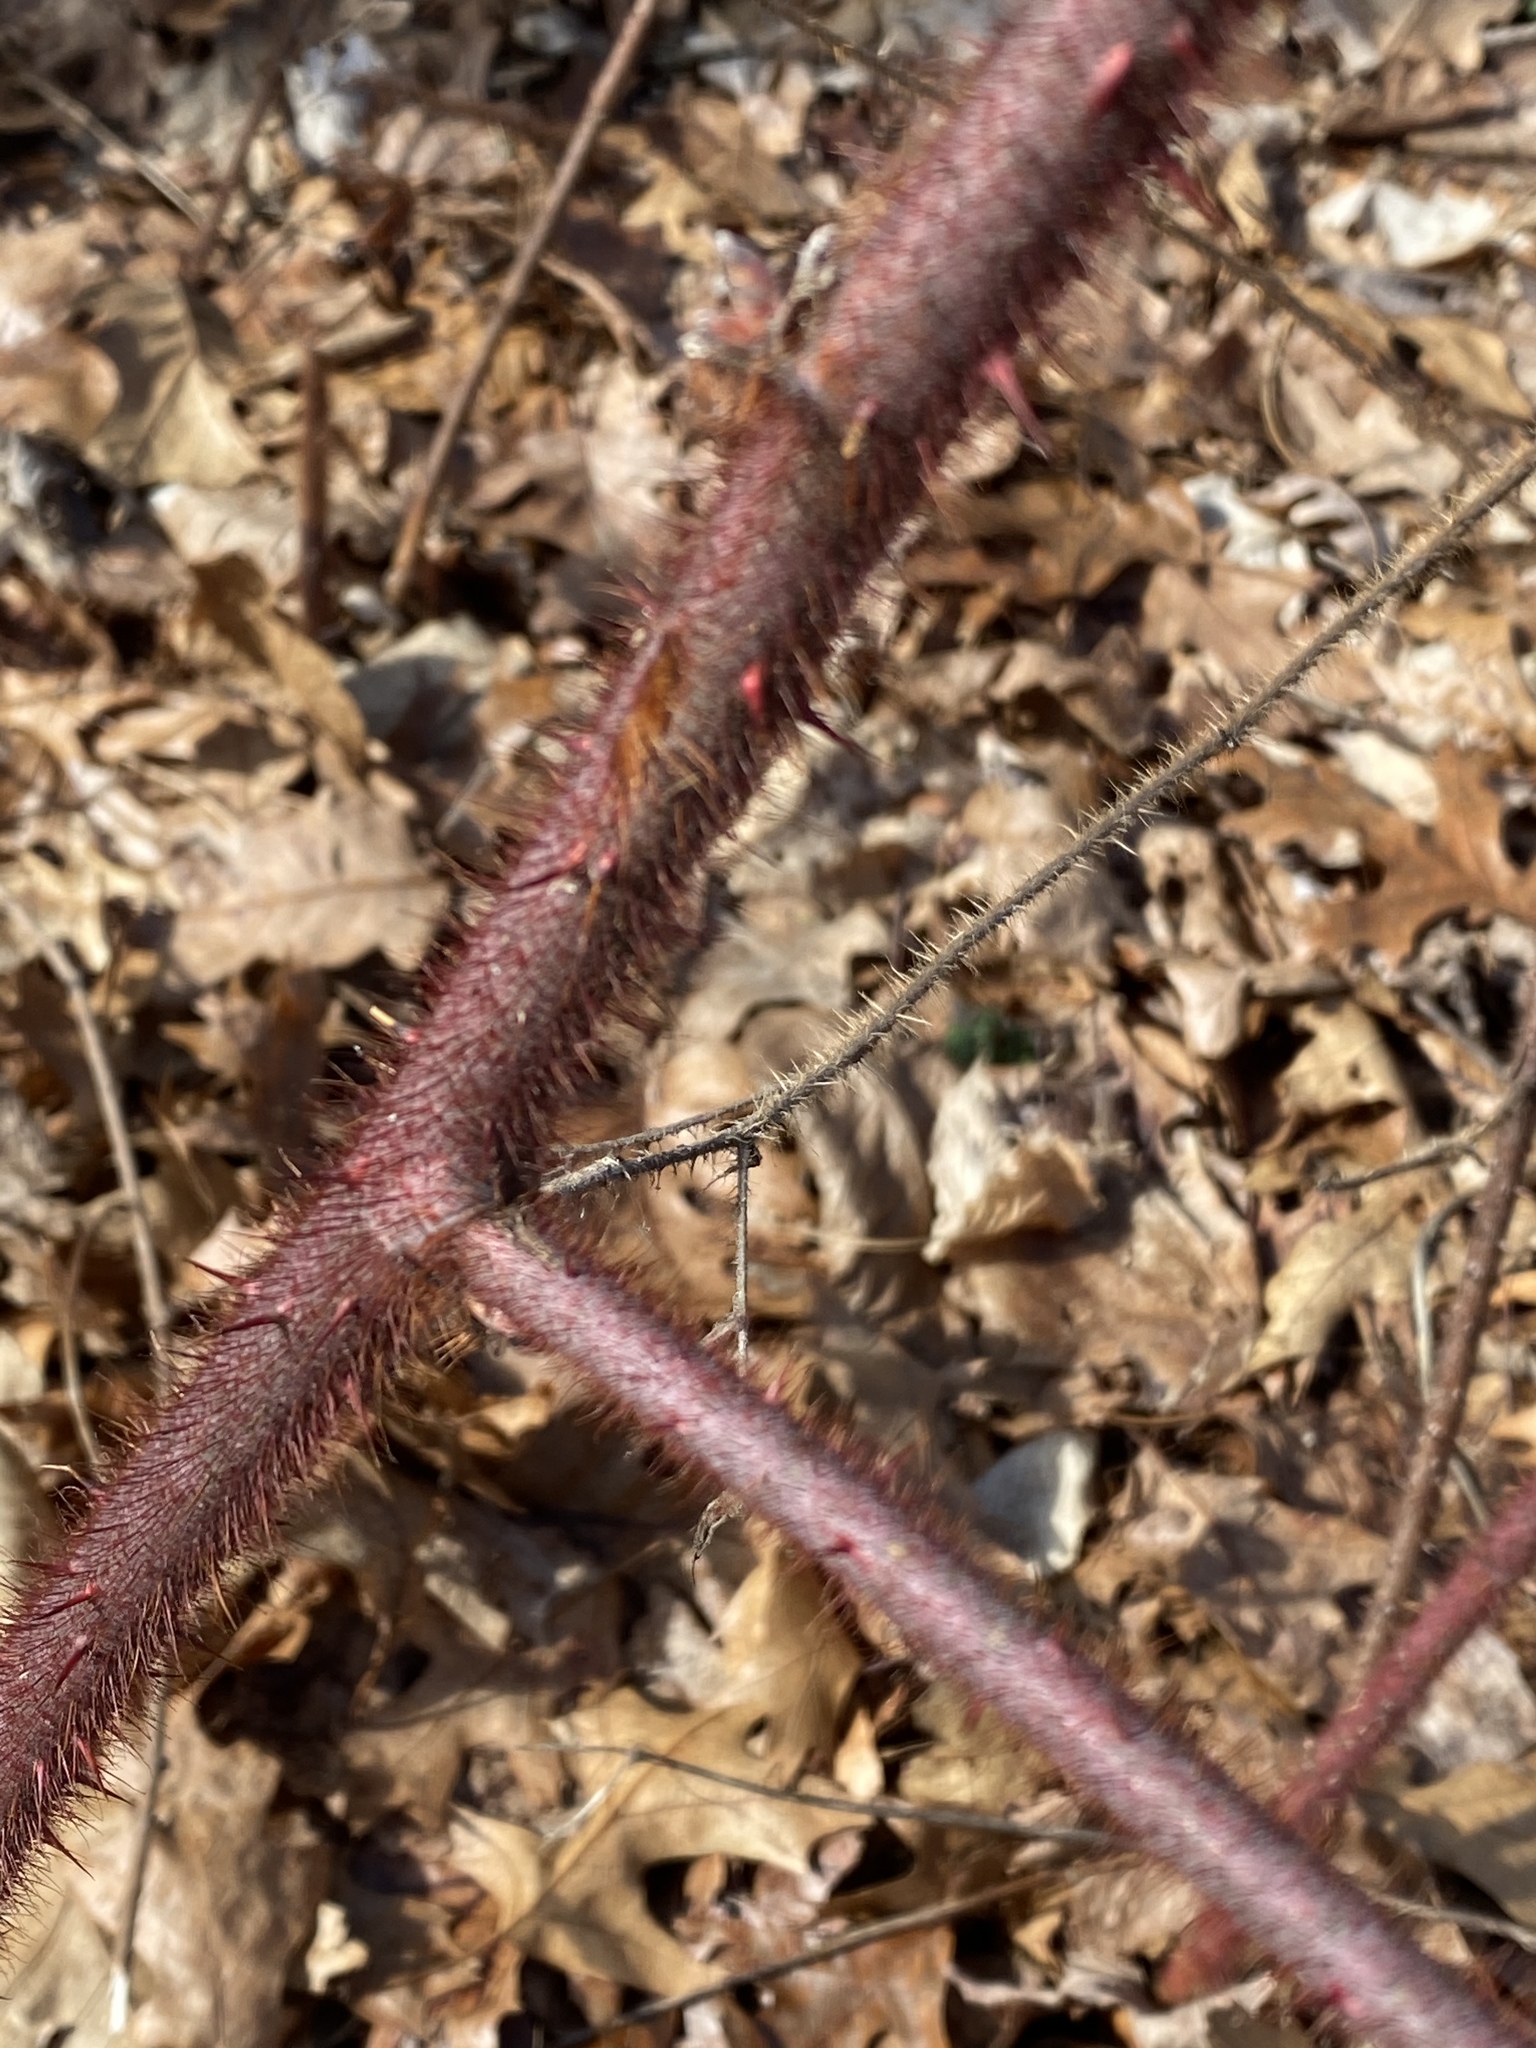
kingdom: Plantae
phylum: Tracheophyta
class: Magnoliopsida
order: Rosales
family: Rosaceae
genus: Rubus
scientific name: Rubus phoenicolasius
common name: Japanese wineberry
